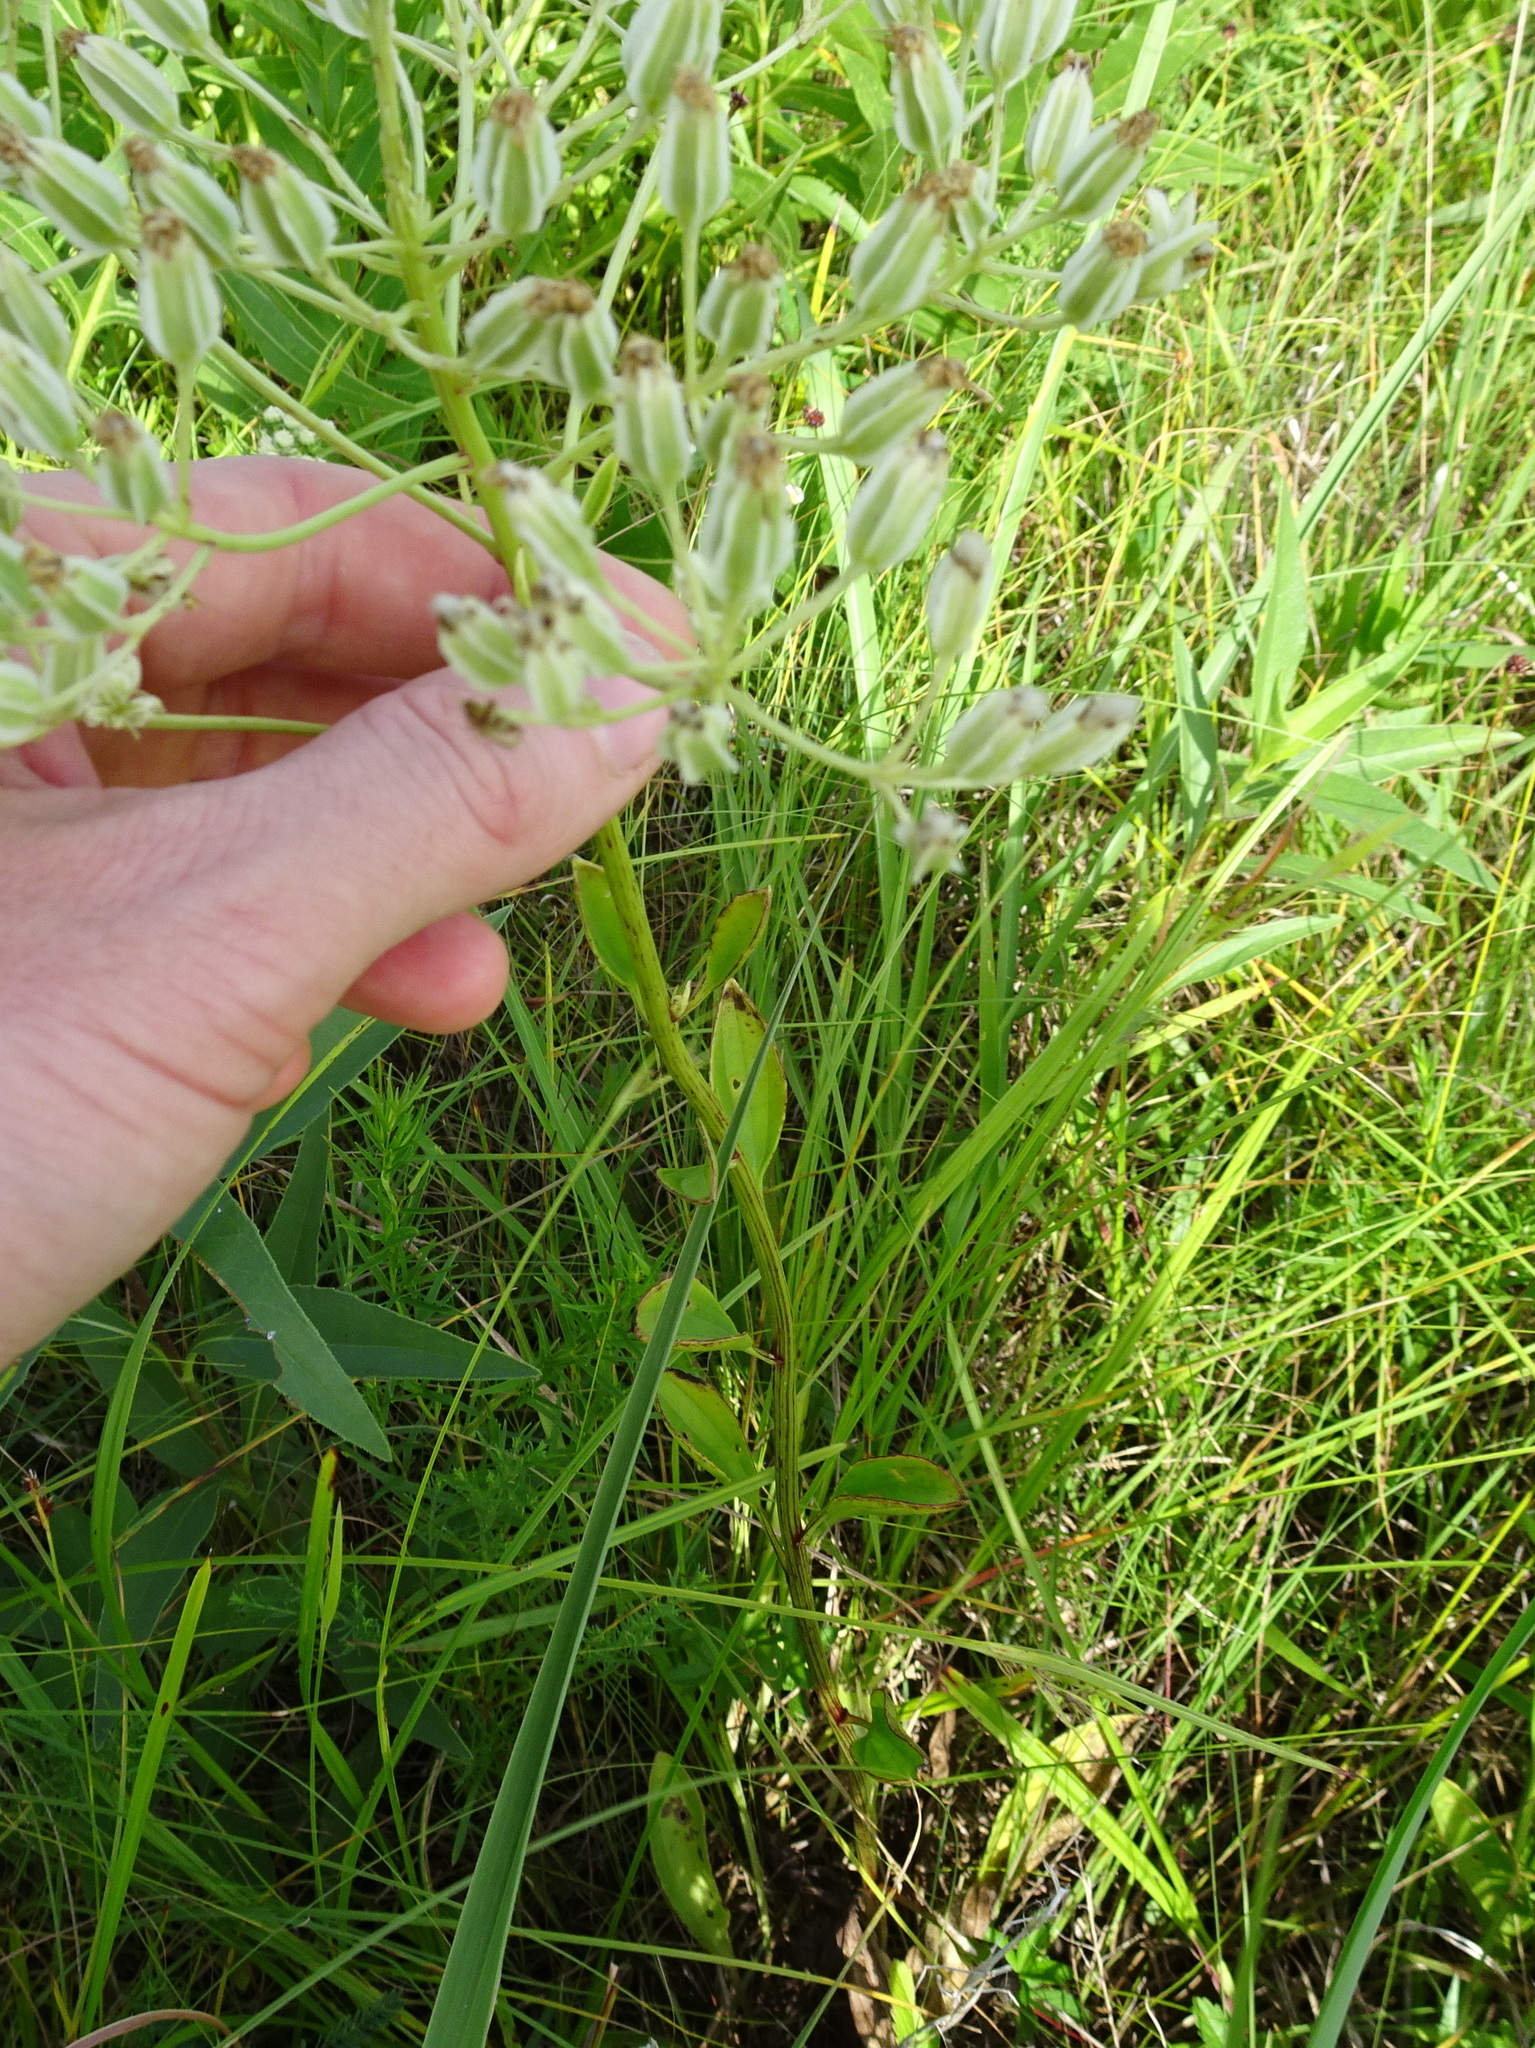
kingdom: Plantae
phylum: Tracheophyta
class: Magnoliopsida
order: Asterales
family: Asteraceae
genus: Arnoglossum
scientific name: Arnoglossum plantagineum
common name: Groove-stemmed indian-plantain
